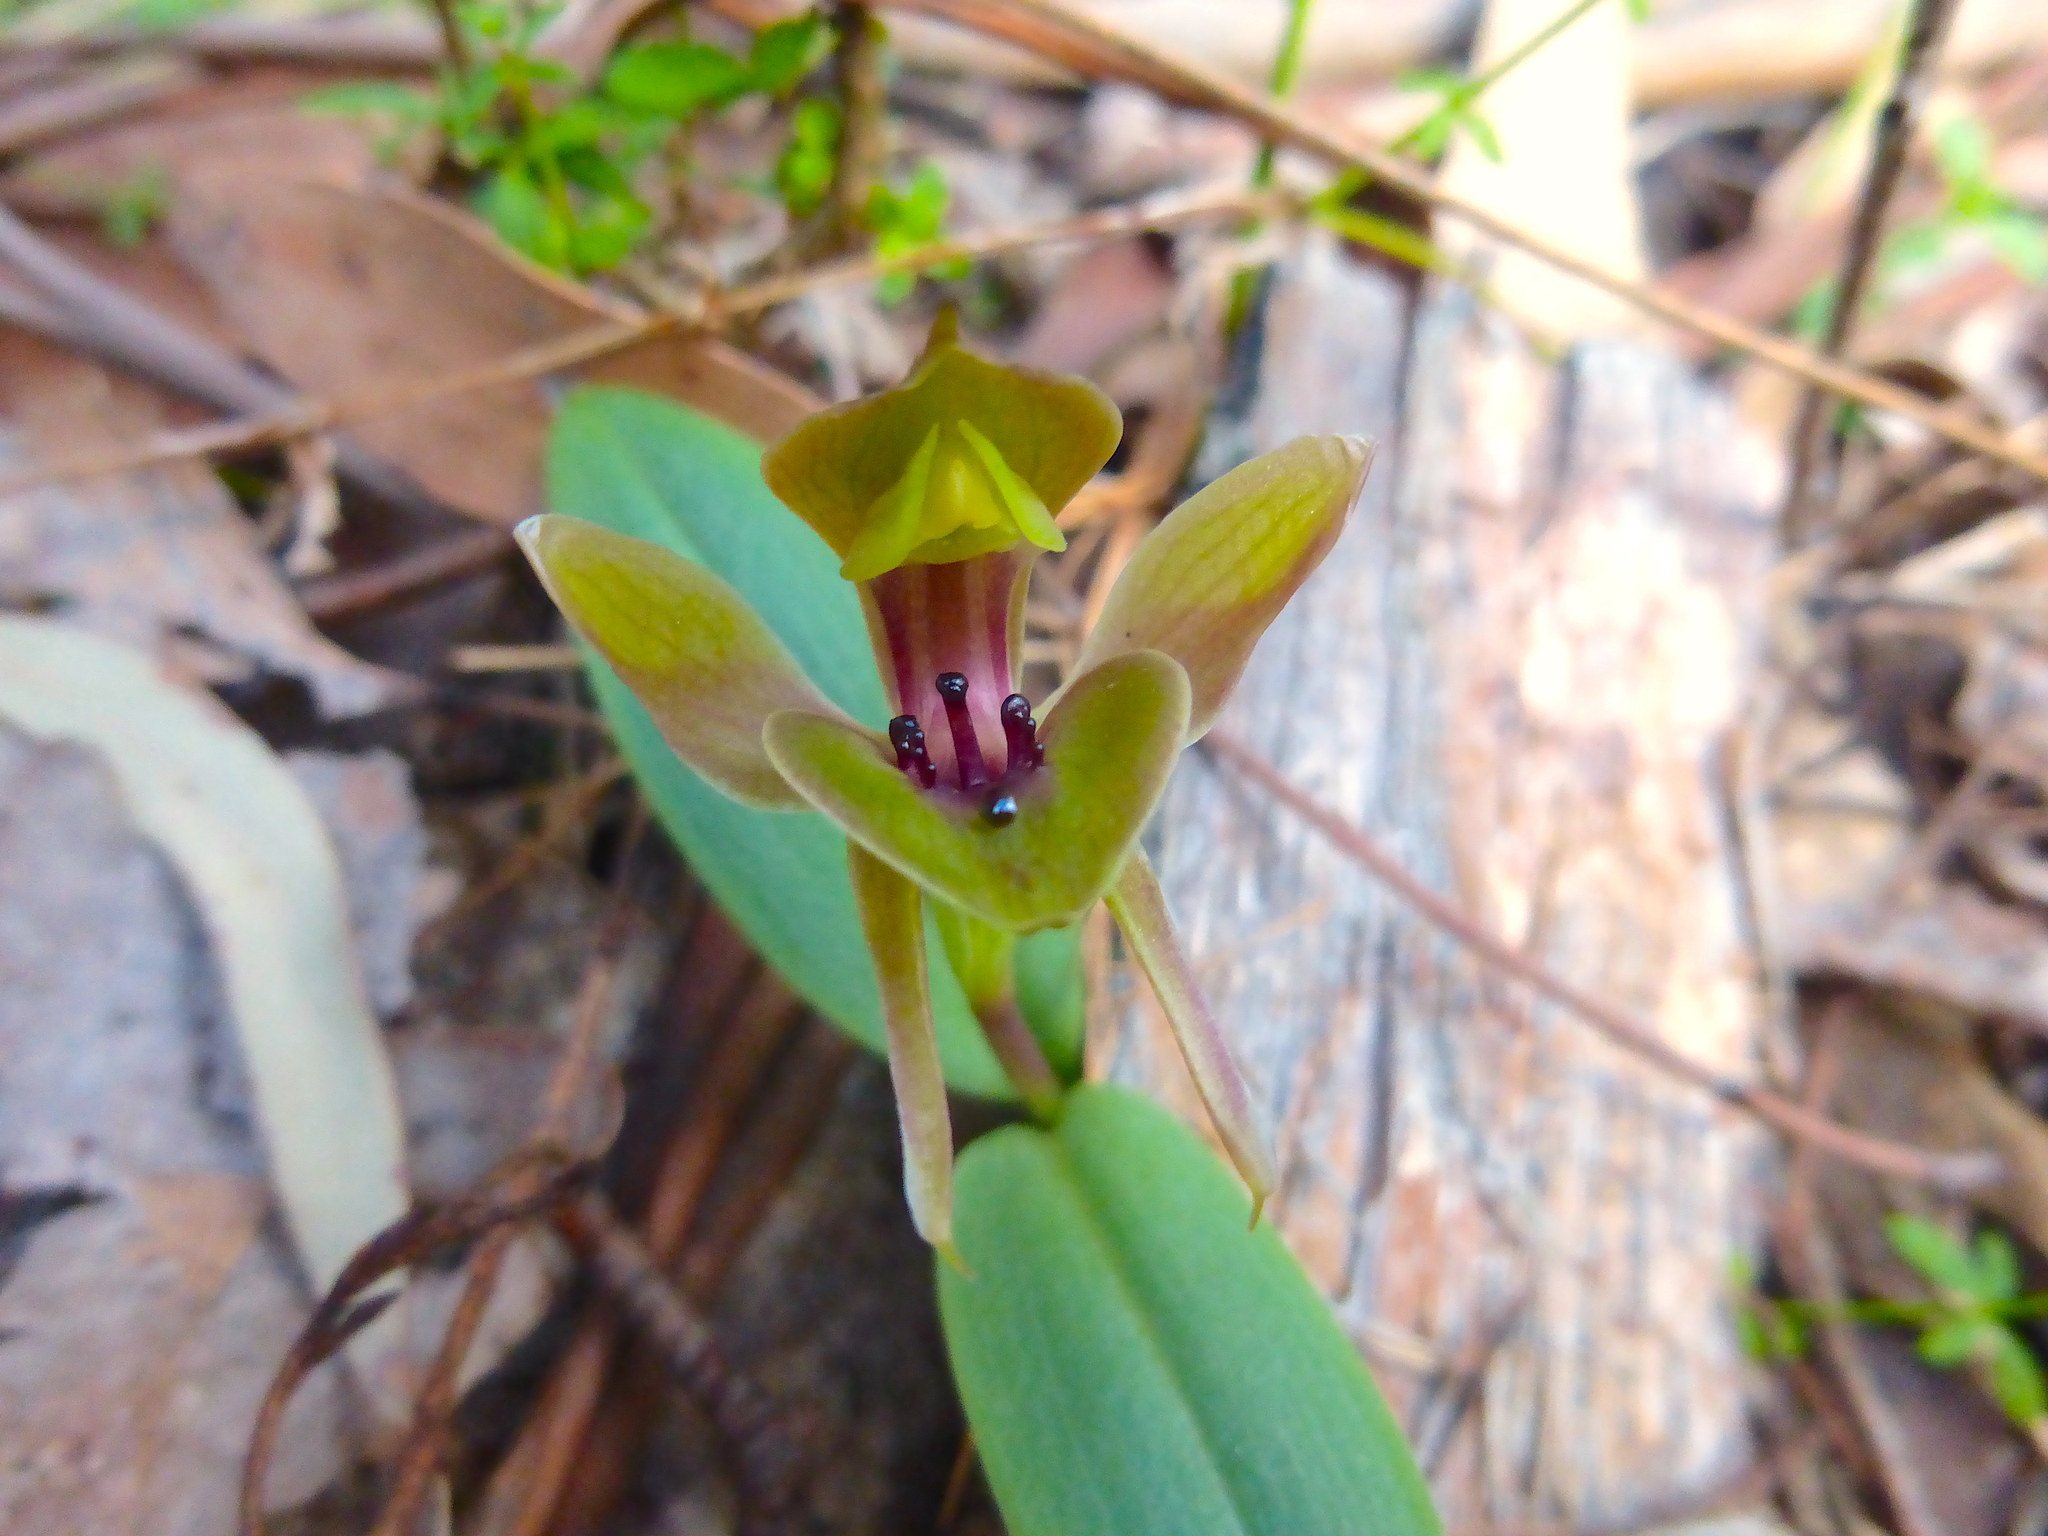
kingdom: Plantae
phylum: Tracheophyta
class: Liliopsida
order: Asparagales
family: Orchidaceae
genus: Chiloglottis
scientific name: Chiloglottis valida
